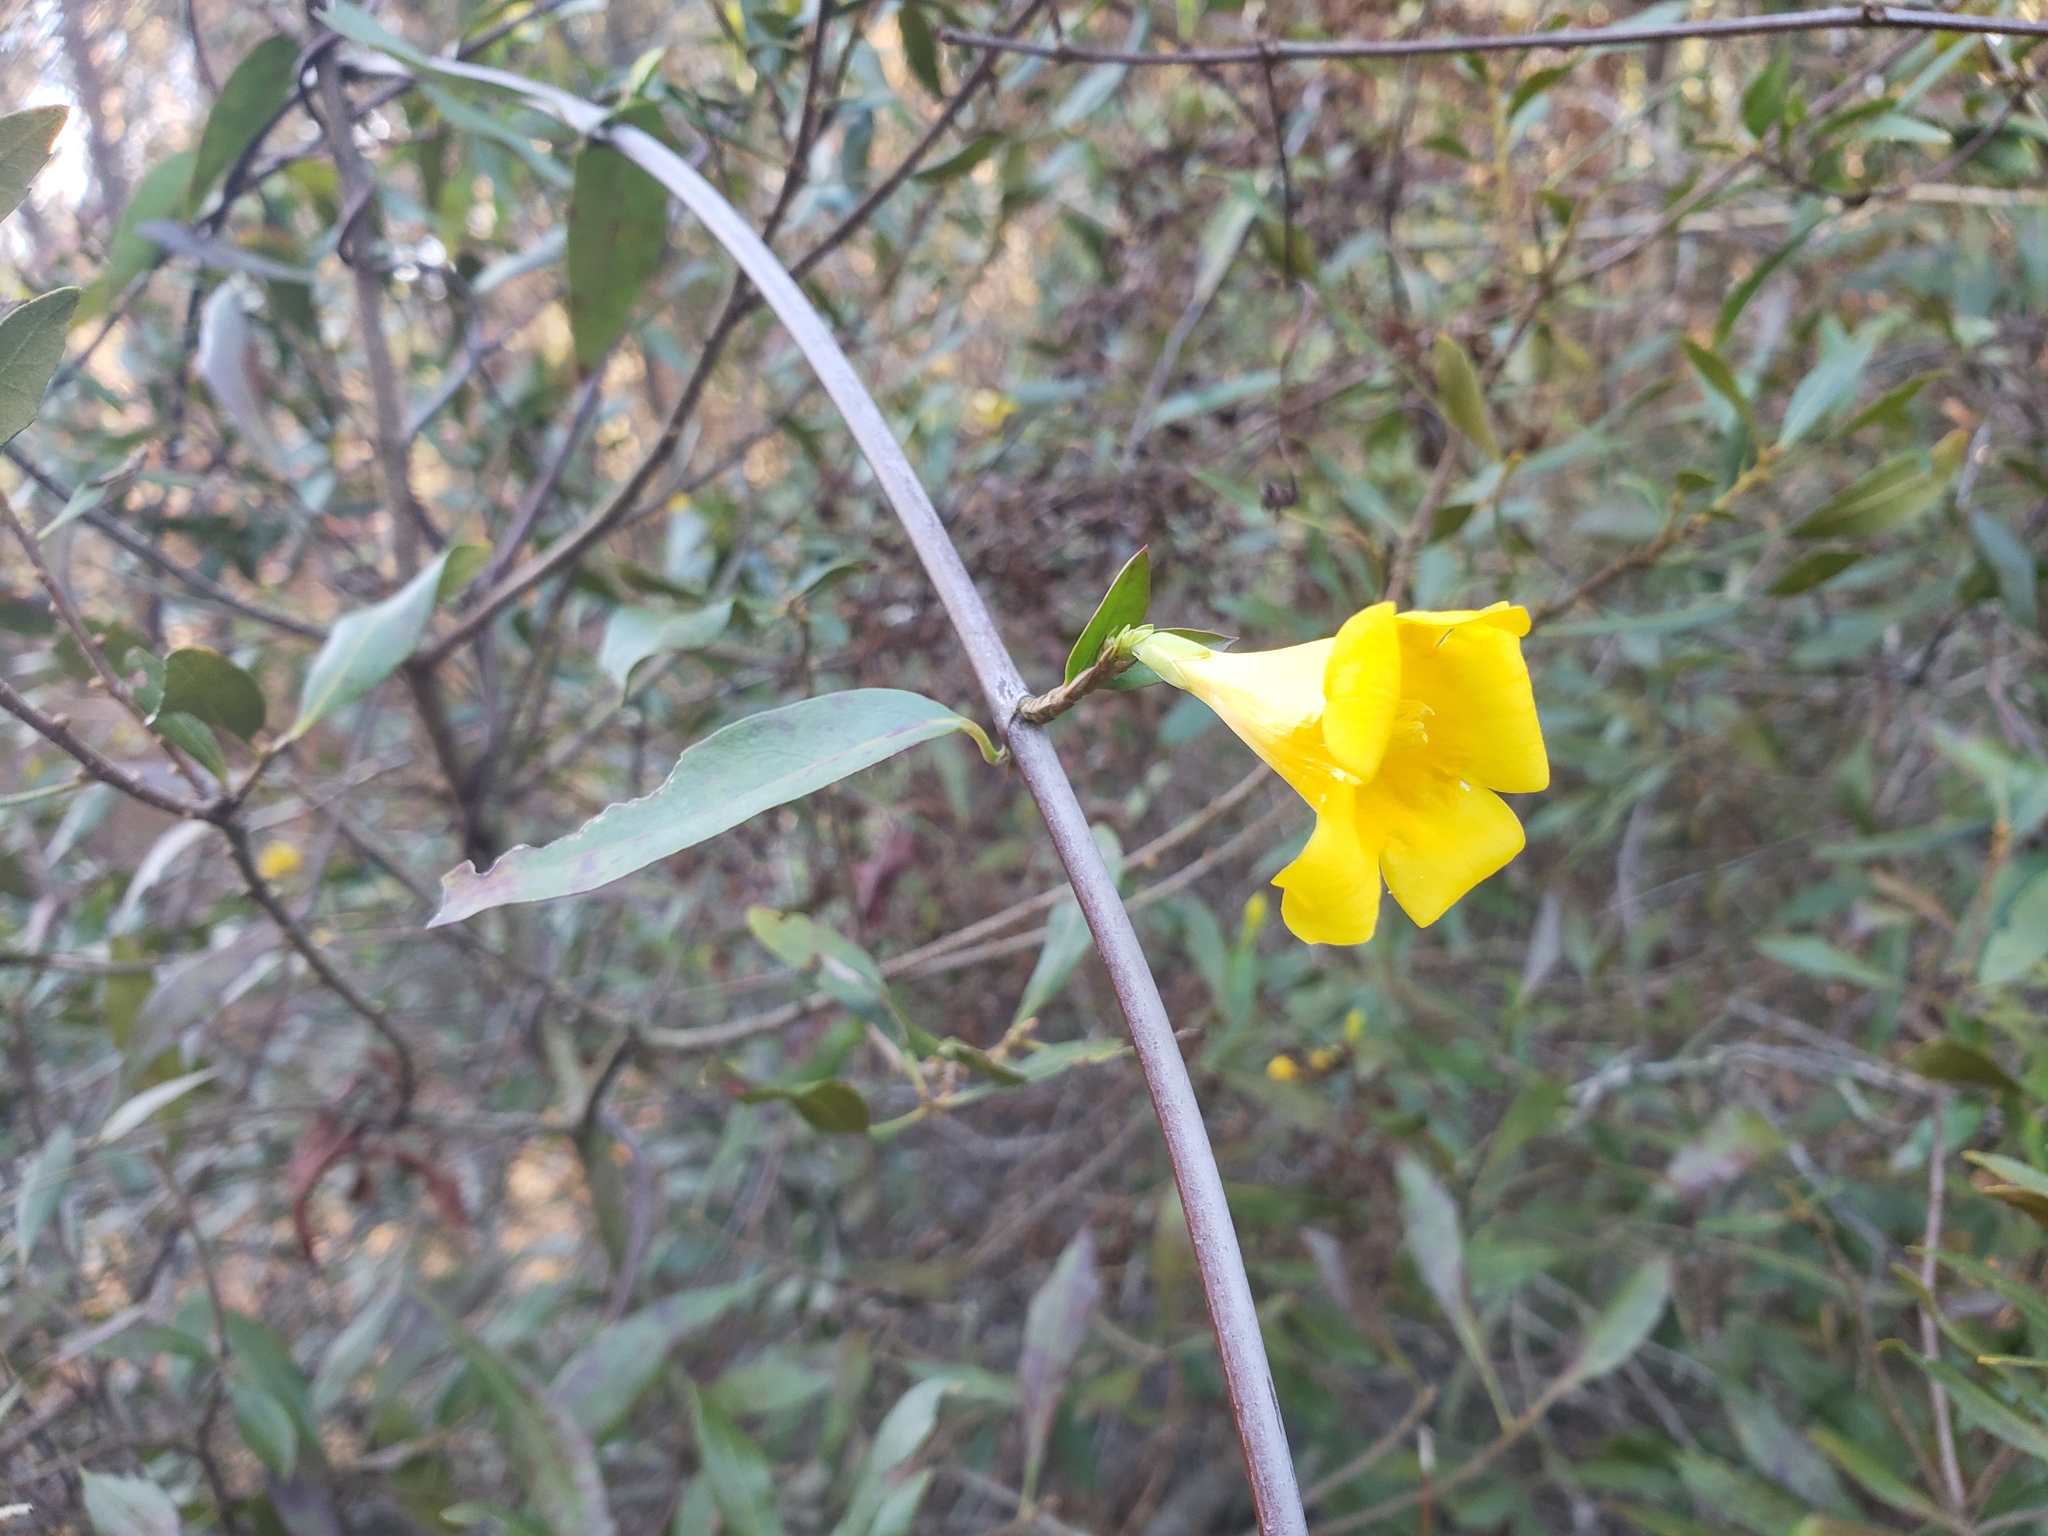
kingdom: Plantae
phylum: Tracheophyta
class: Magnoliopsida
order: Gentianales
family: Gelsemiaceae
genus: Gelsemium
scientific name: Gelsemium sempervirens
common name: Carolina-jasmine
